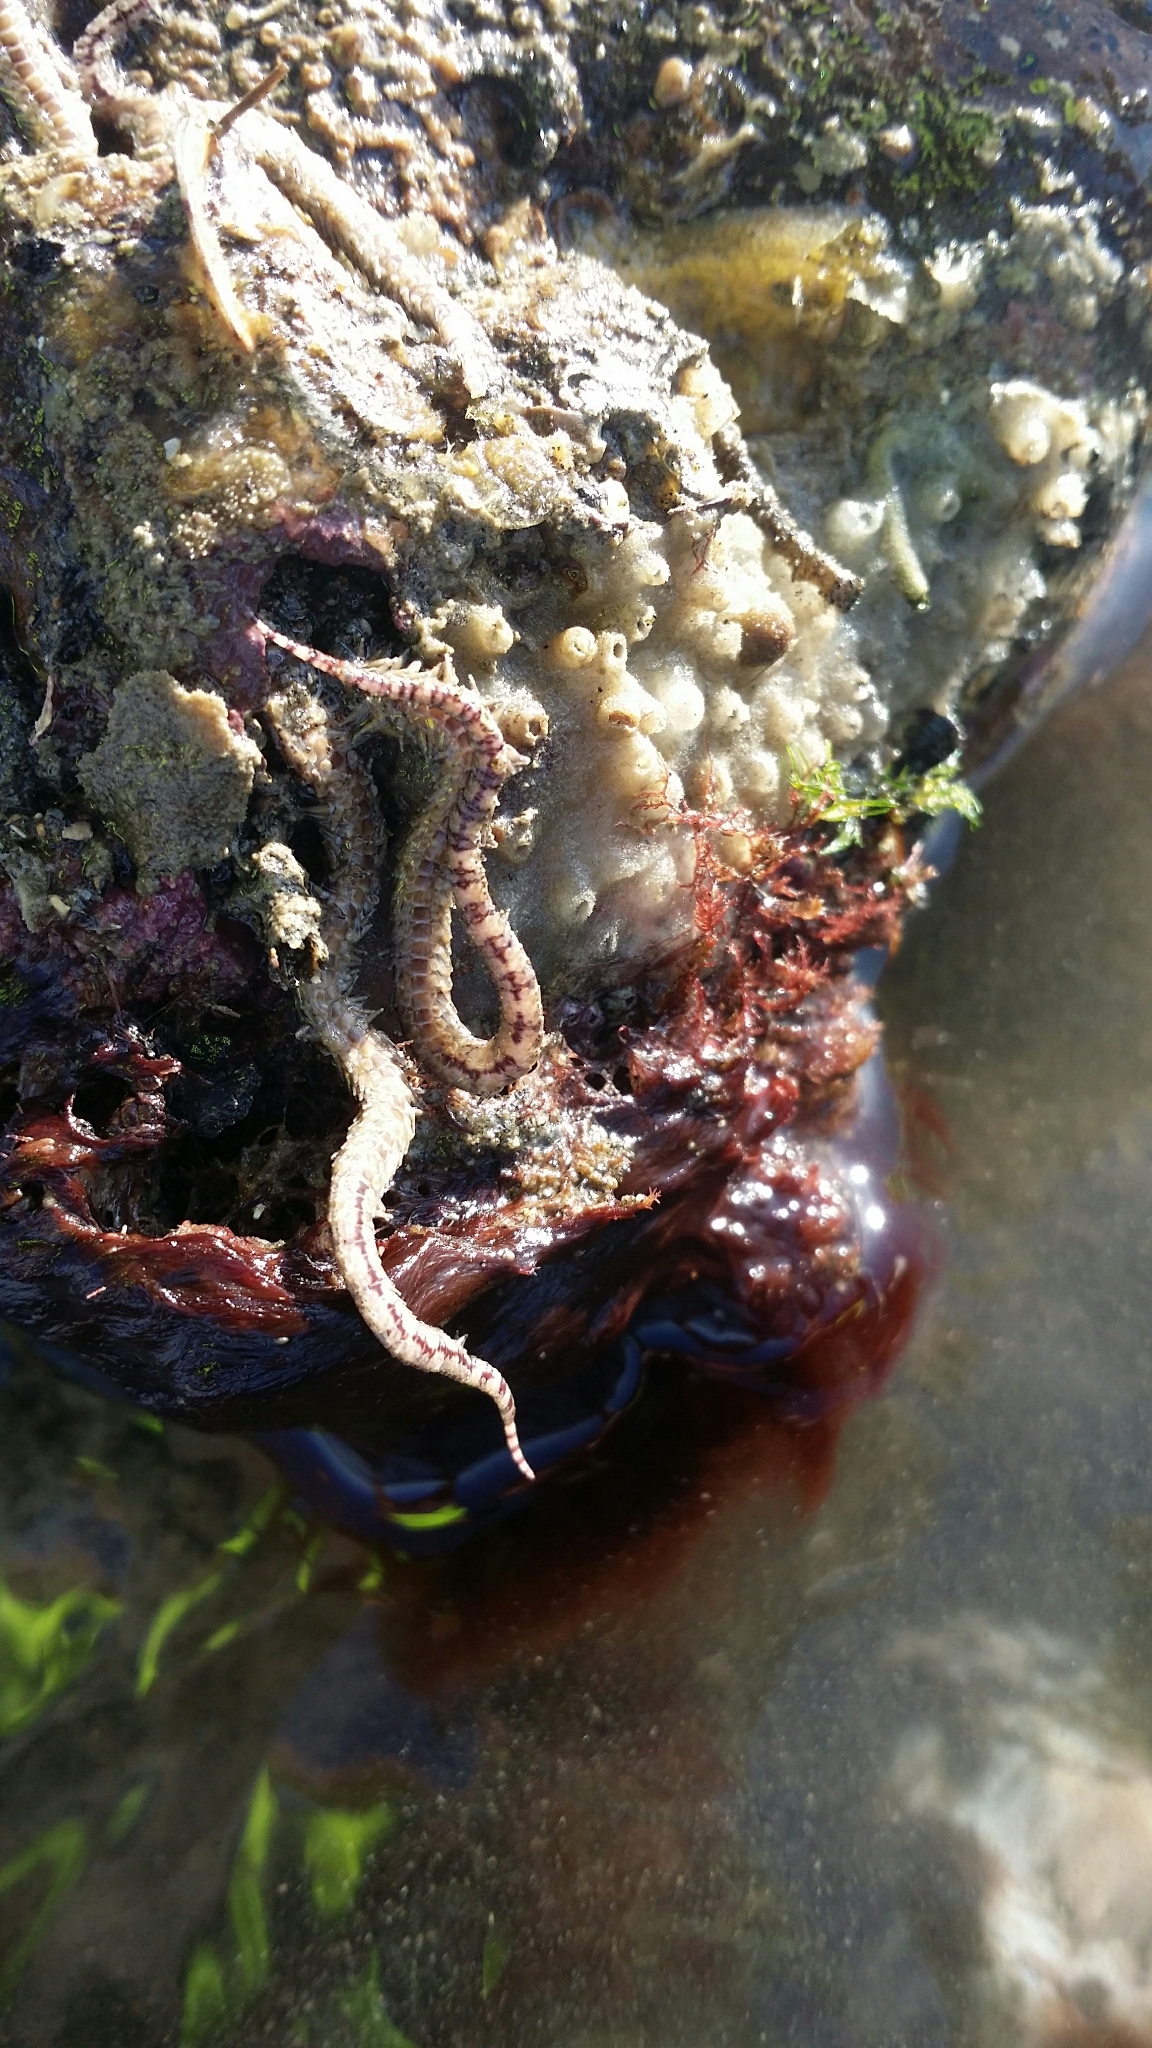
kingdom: Animalia
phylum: Echinodermata
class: Ophiuroidea
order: Amphilepidida
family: Ophionereididae
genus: Ophionereis
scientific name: Ophionereis fasciata
